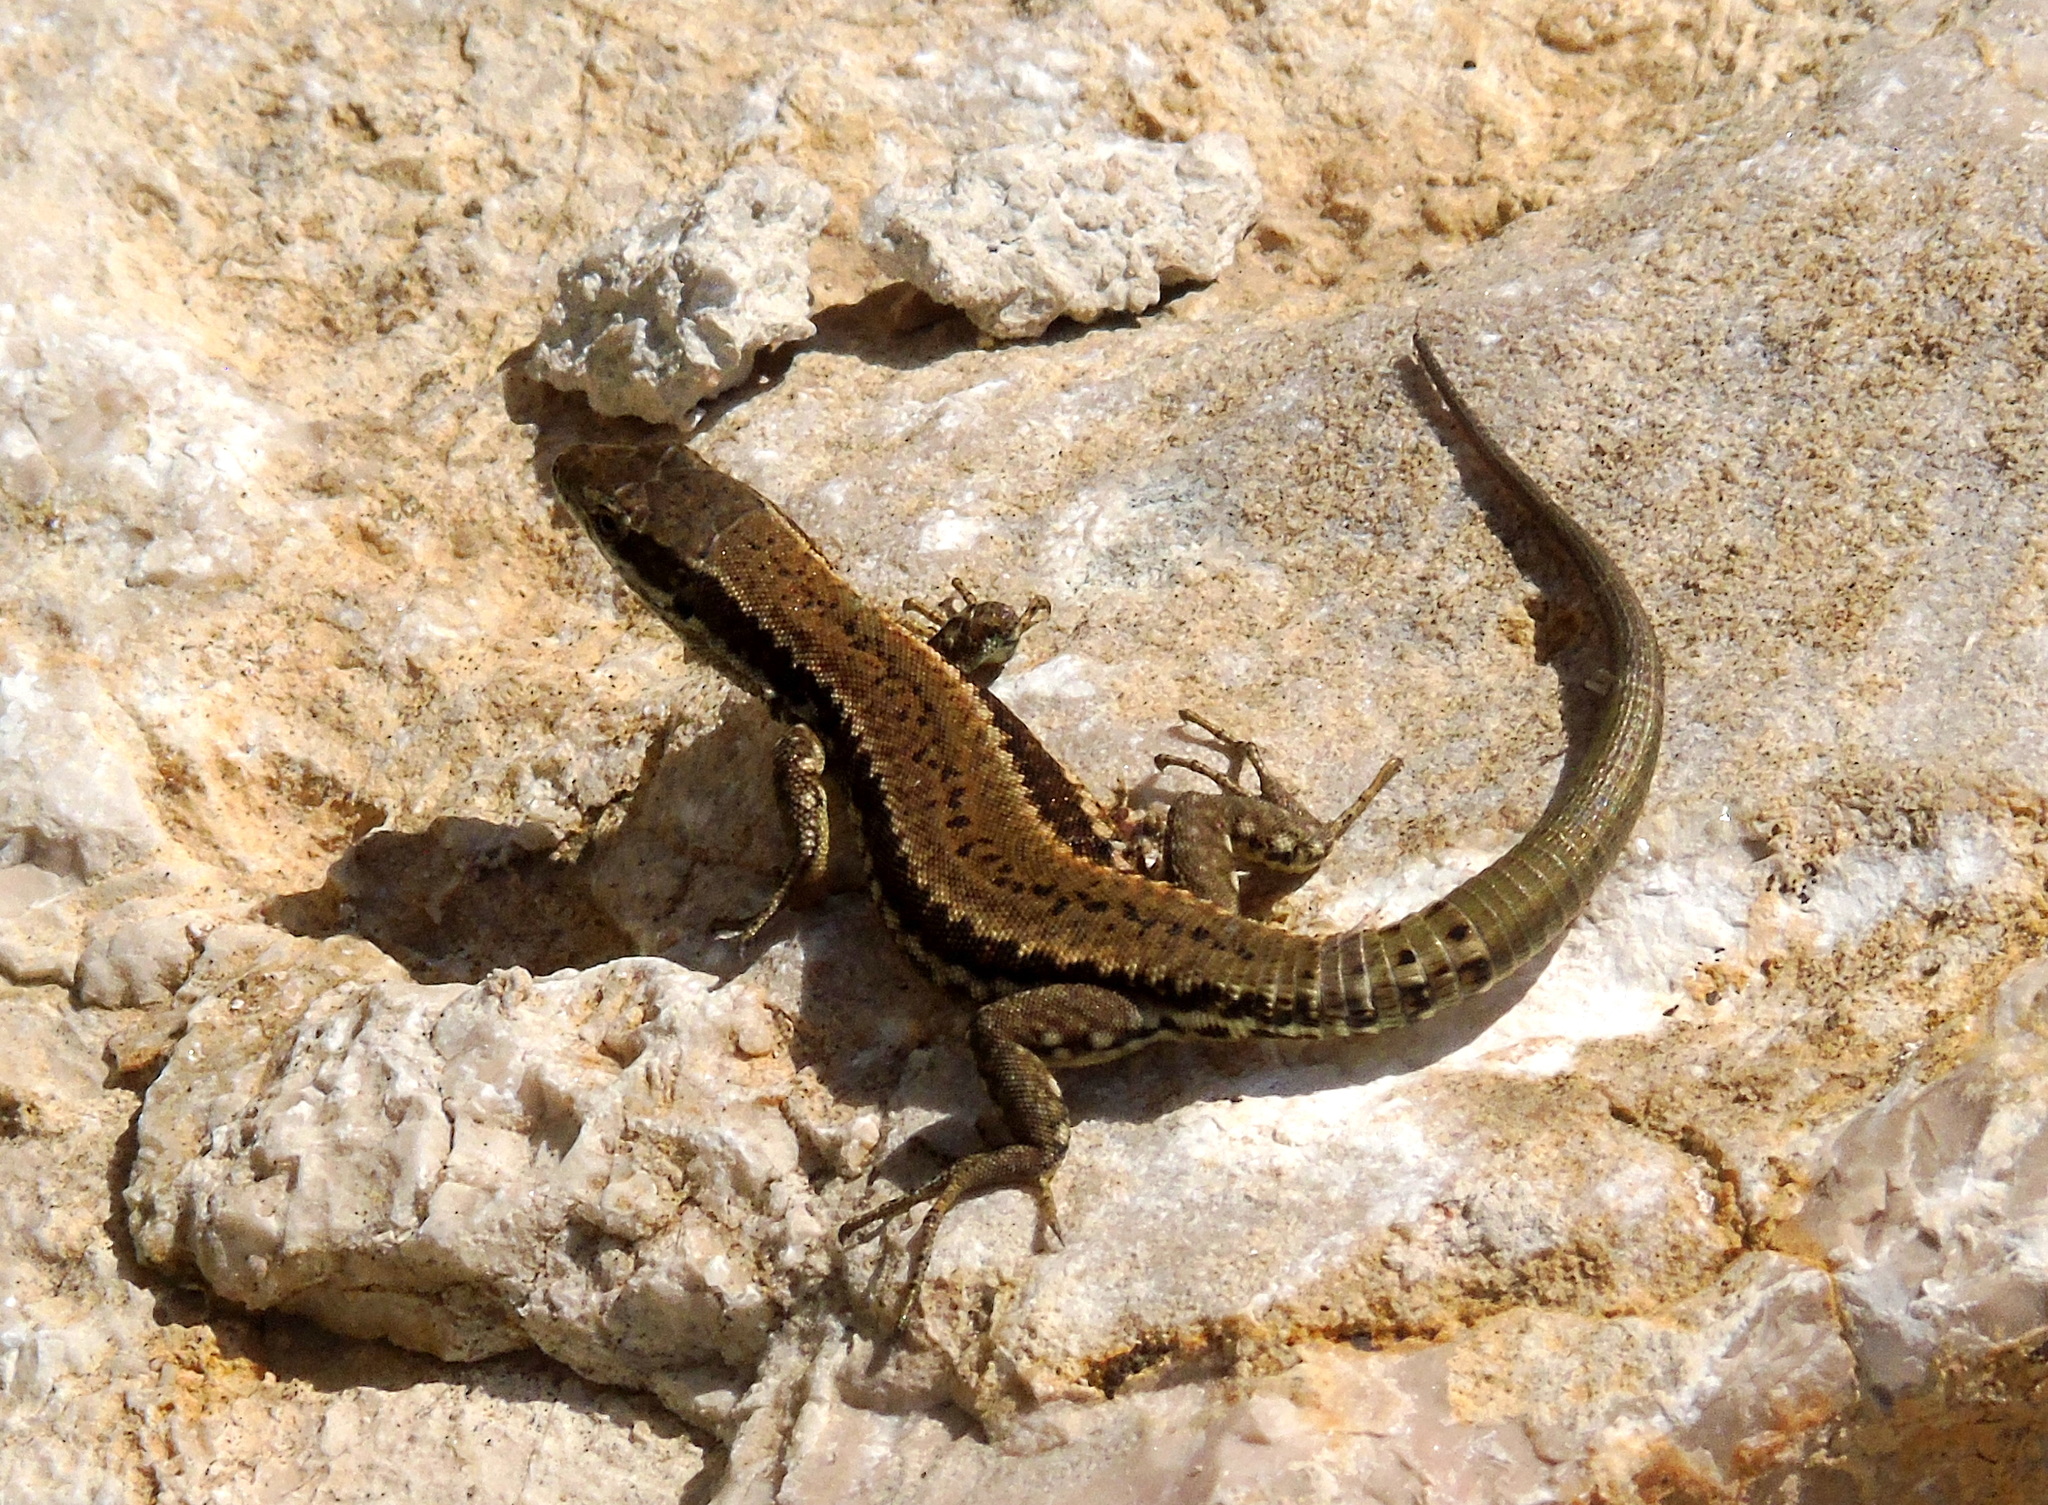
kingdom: Animalia
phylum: Chordata
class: Squamata
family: Lacertidae
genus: Podarcis
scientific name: Podarcis muralis
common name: Common wall lizard
